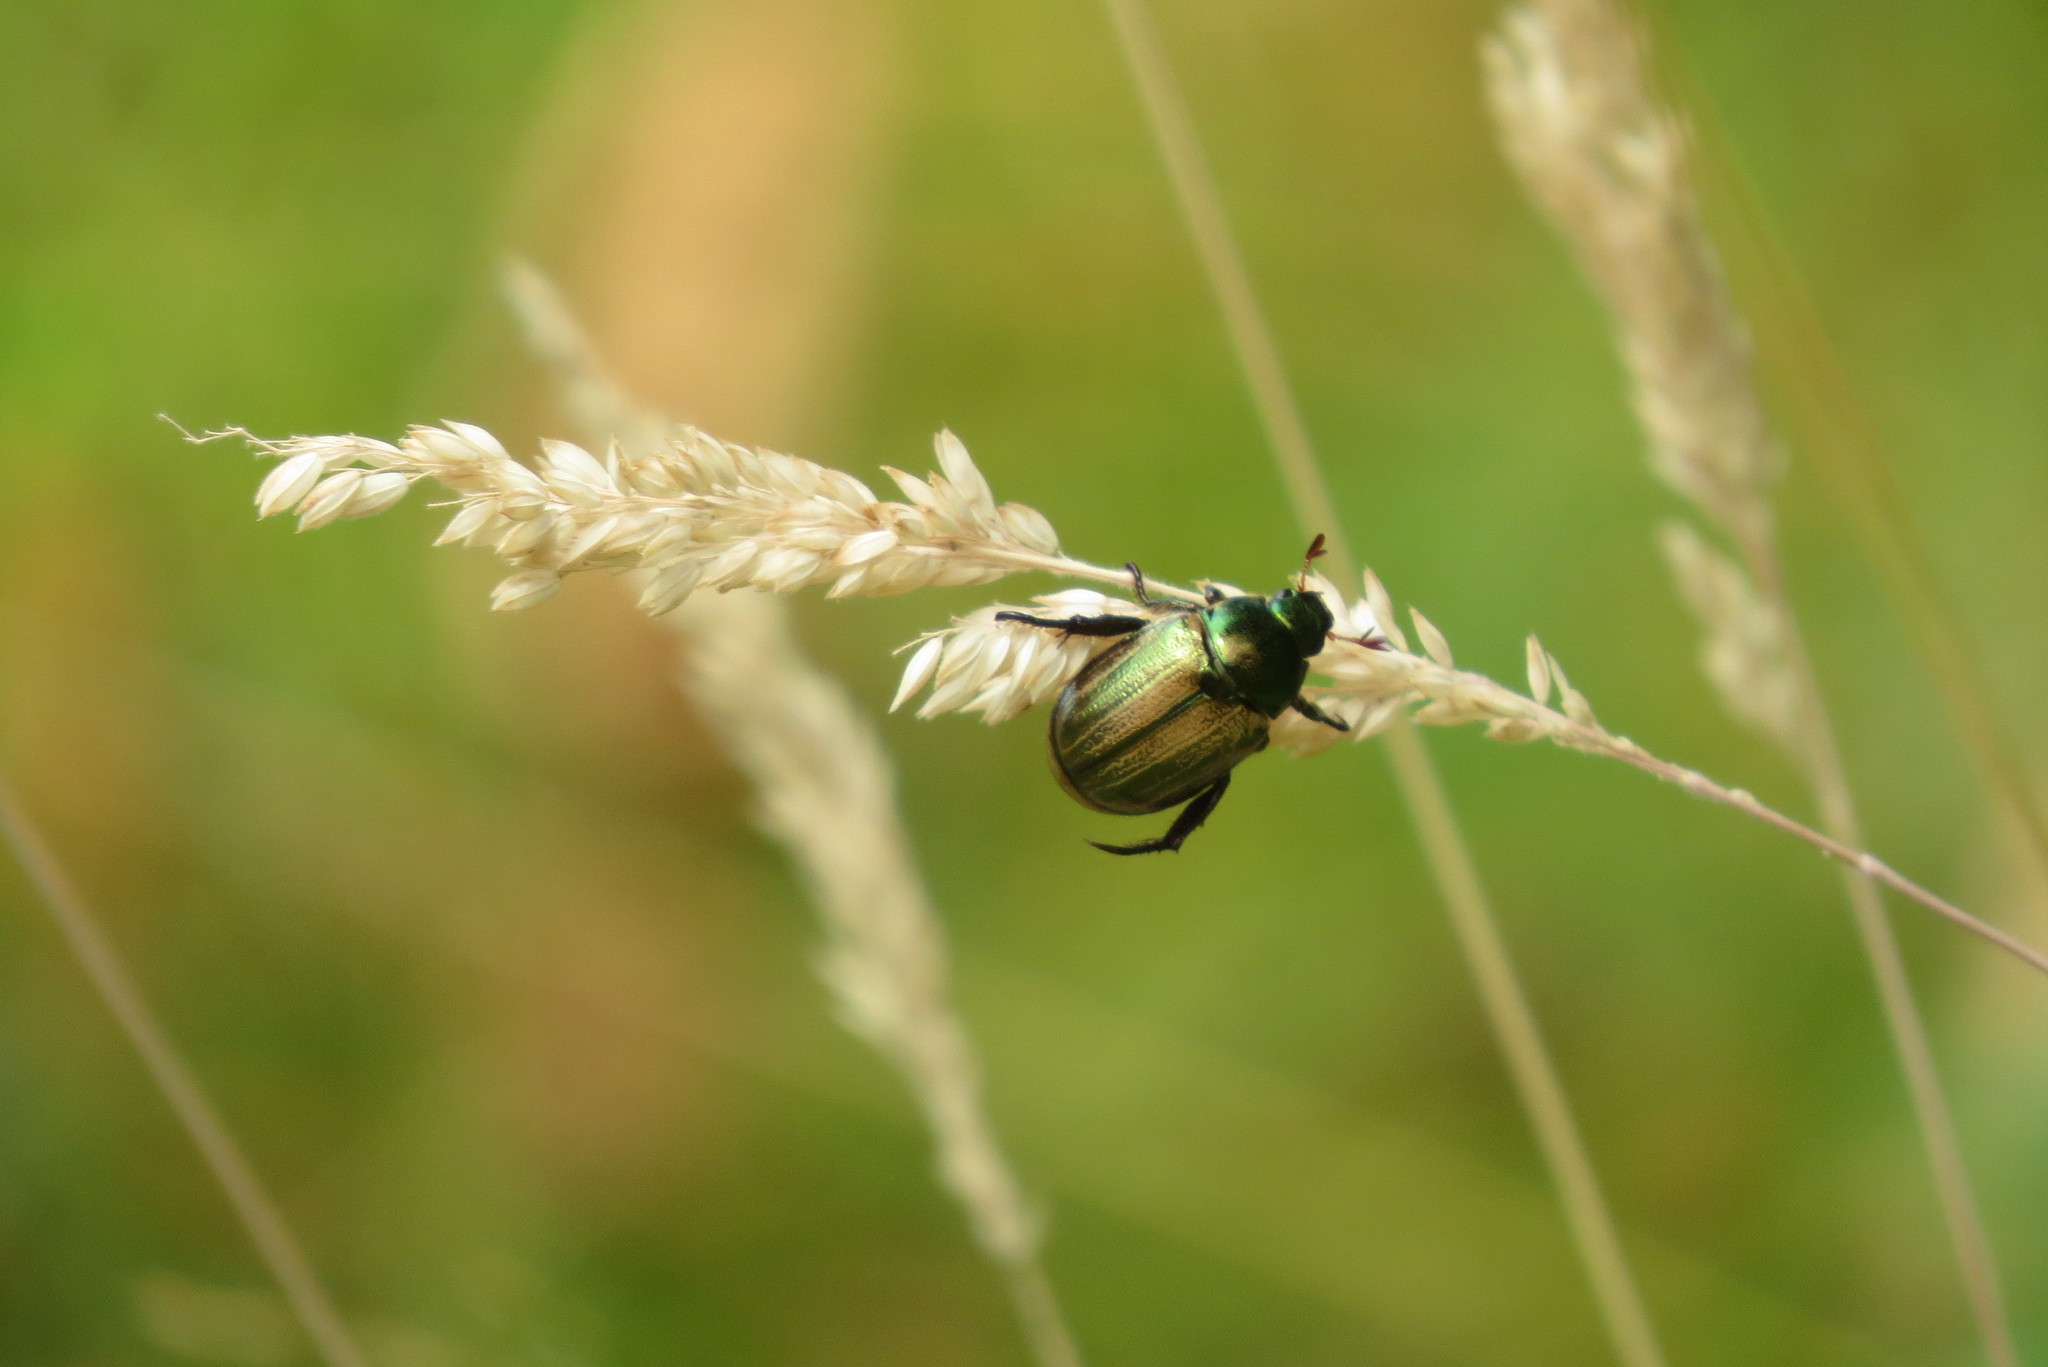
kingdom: Animalia
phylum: Arthropoda
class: Insecta
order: Coleoptera
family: Scarabaeidae
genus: Mimela
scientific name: Mimela junii
